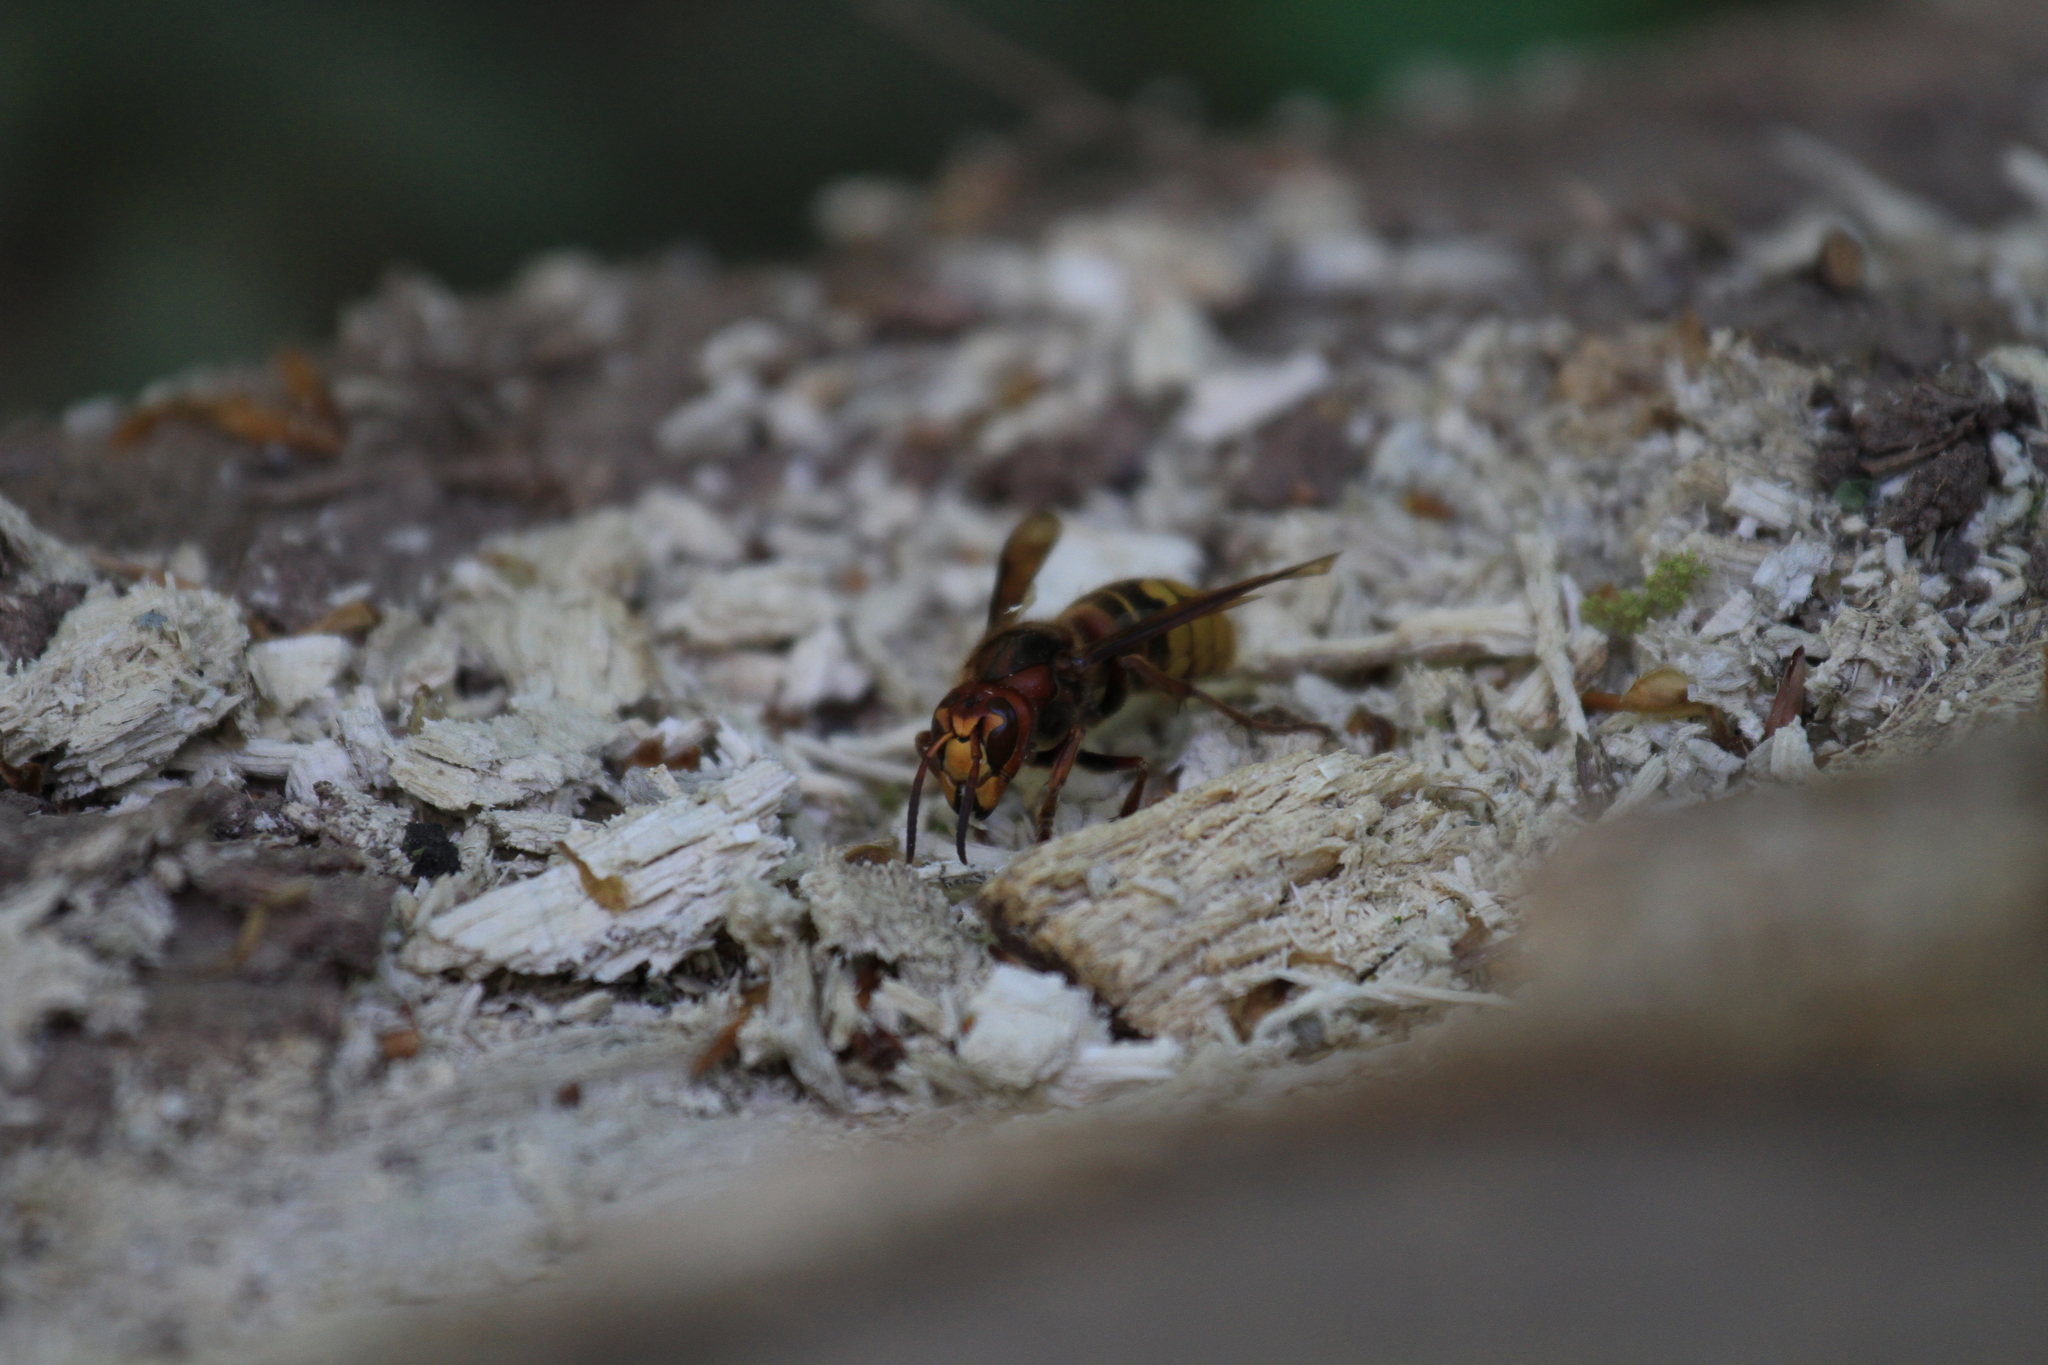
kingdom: Animalia
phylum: Arthropoda
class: Insecta
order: Hymenoptera
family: Vespidae
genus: Vespa
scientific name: Vespa crabro
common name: Hornet
